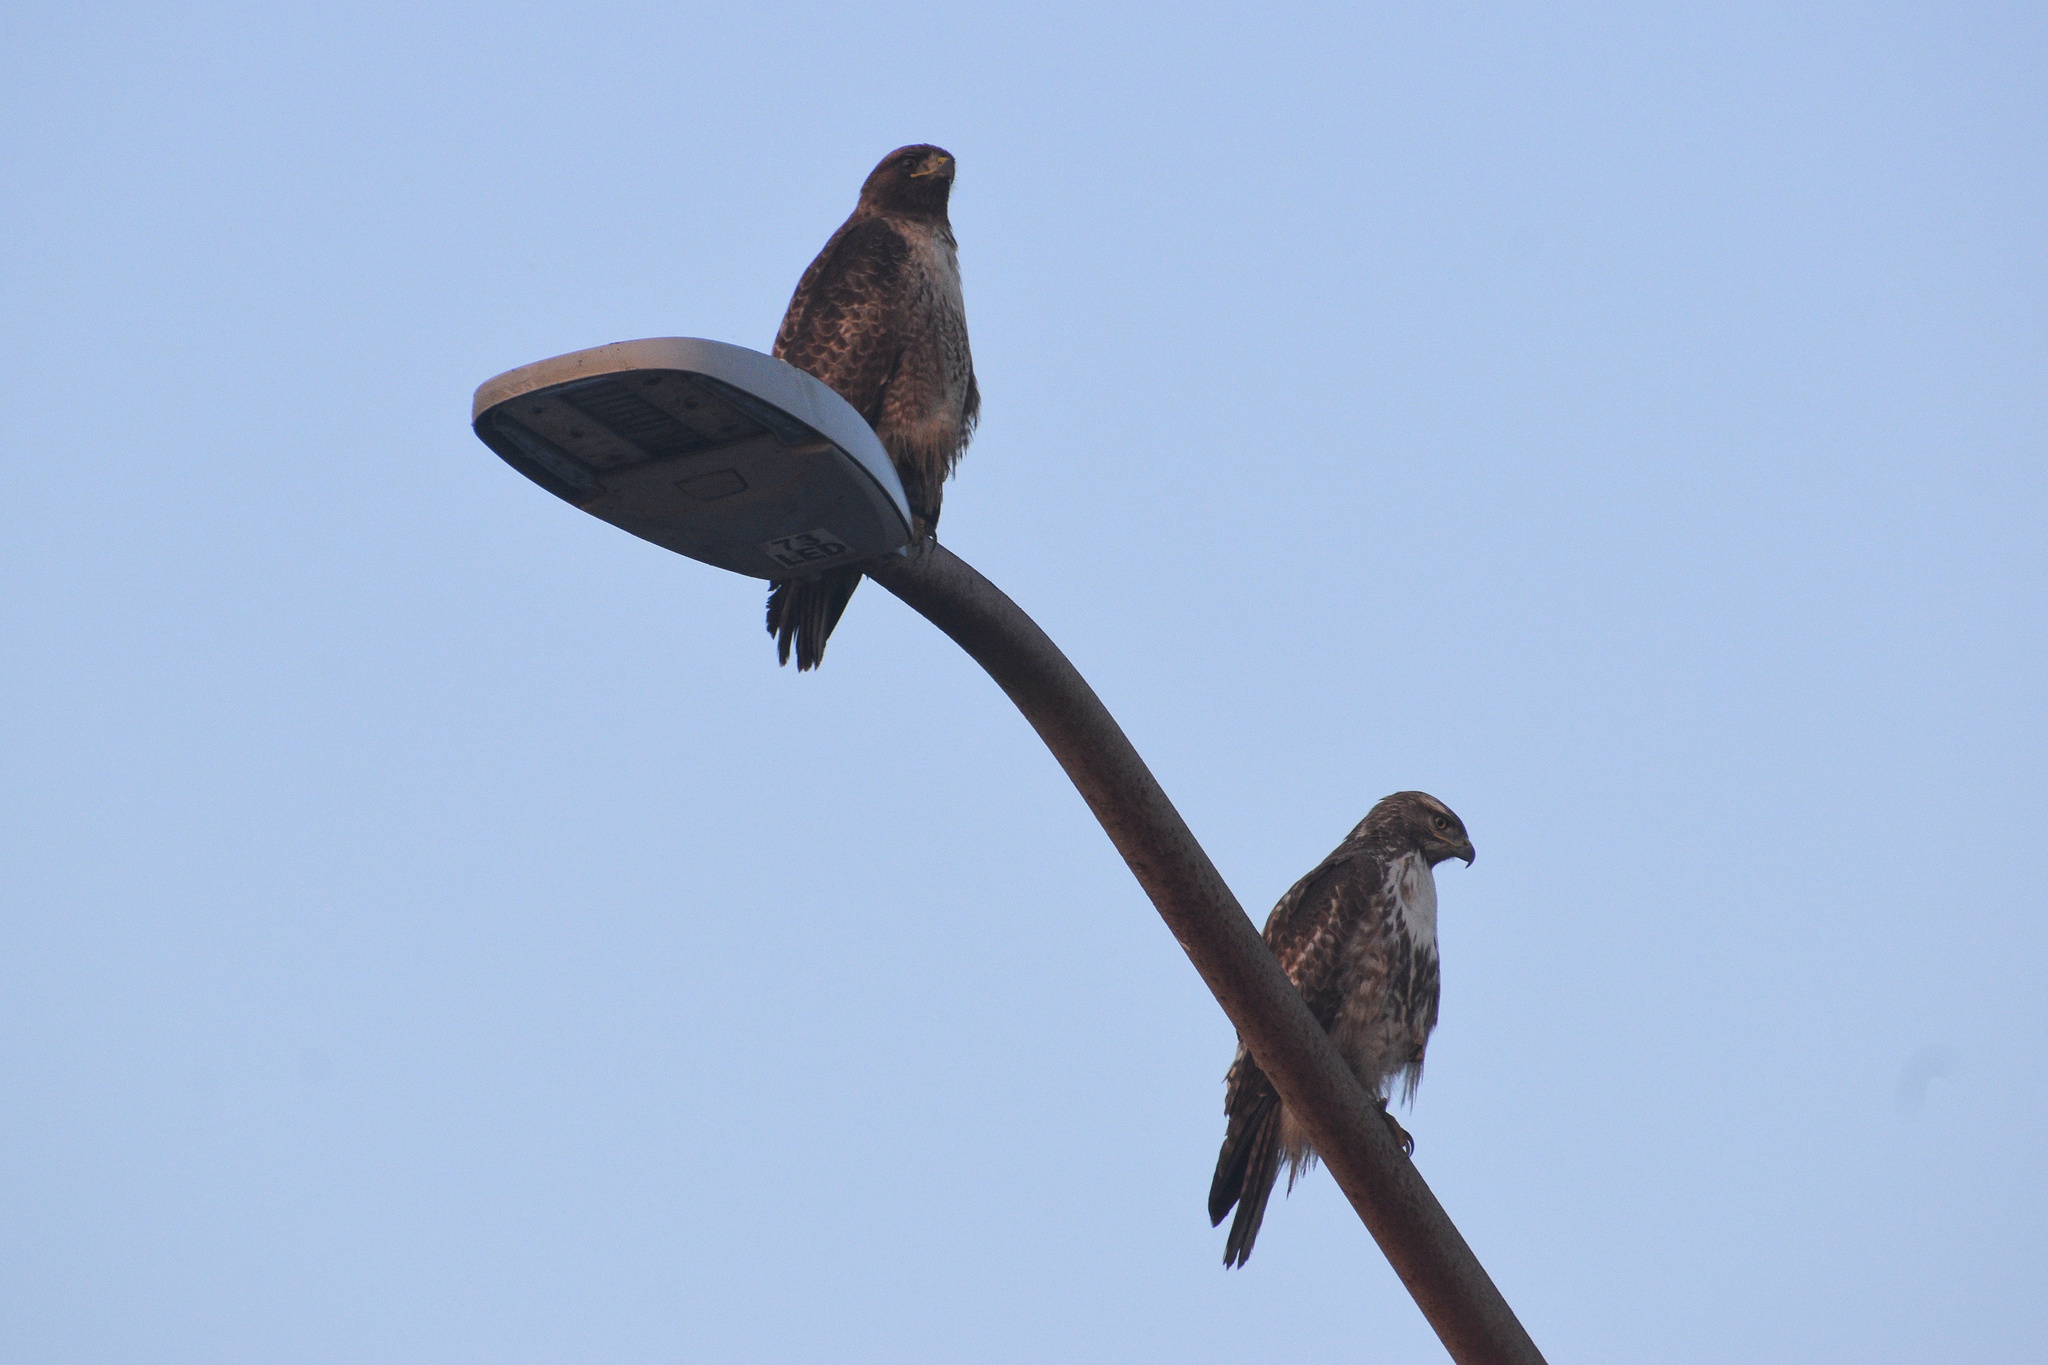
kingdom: Animalia
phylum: Chordata
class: Aves
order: Accipitriformes
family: Accipitridae
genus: Buteo
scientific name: Buteo jamaicensis
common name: Red-tailed hawk
